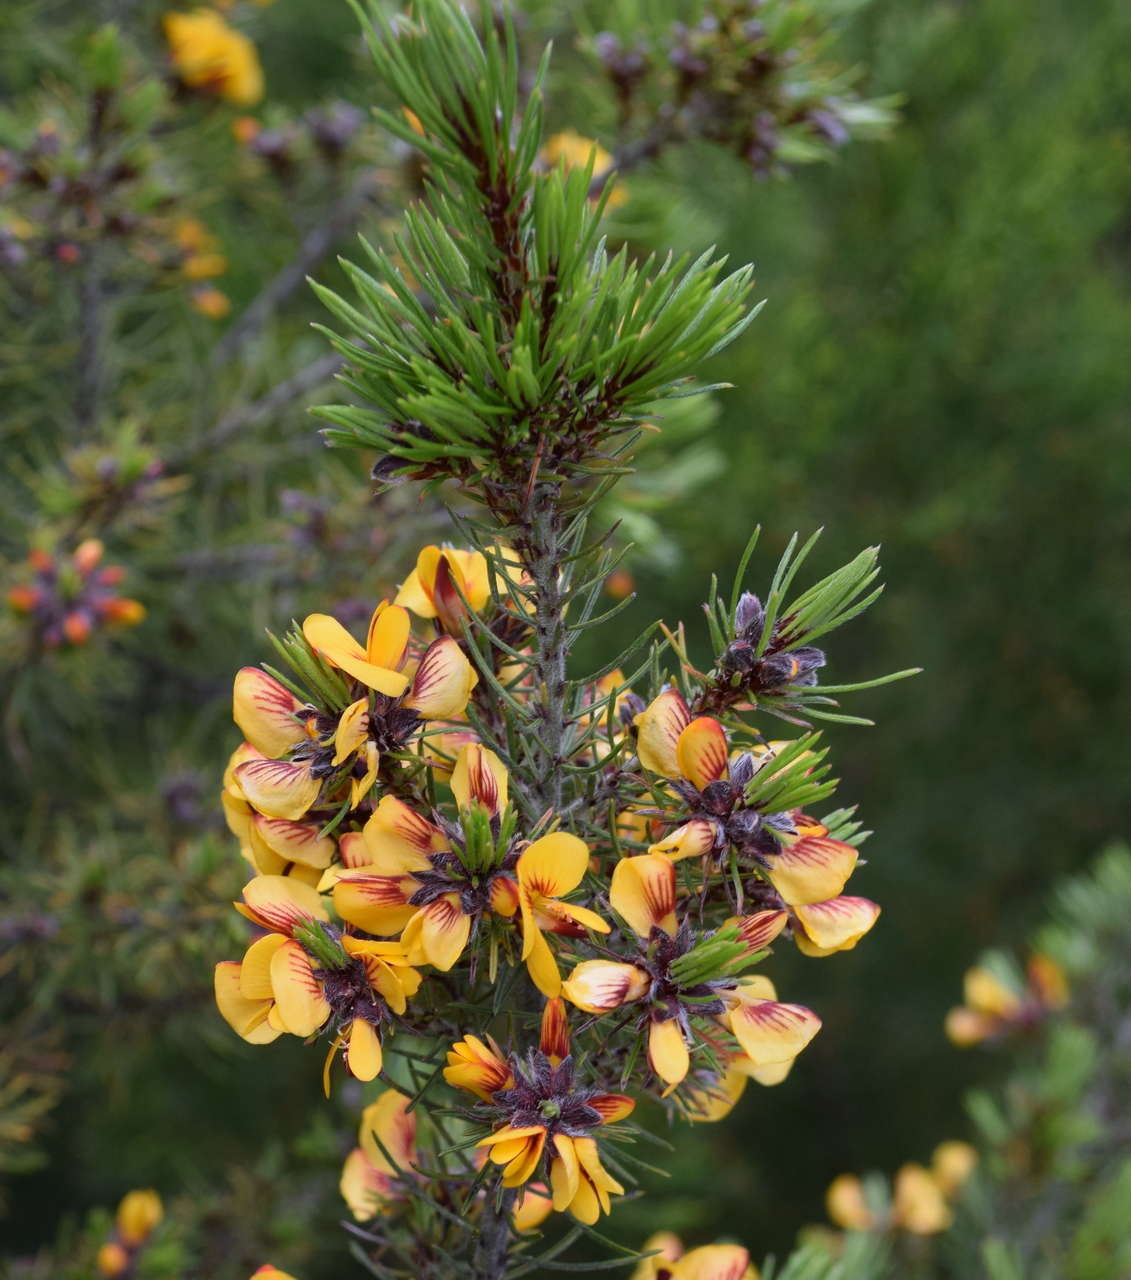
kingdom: Plantae
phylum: Tracheophyta
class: Magnoliopsida
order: Fabales
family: Fabaceae
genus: Pultenaea
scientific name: Pultenaea mollis
